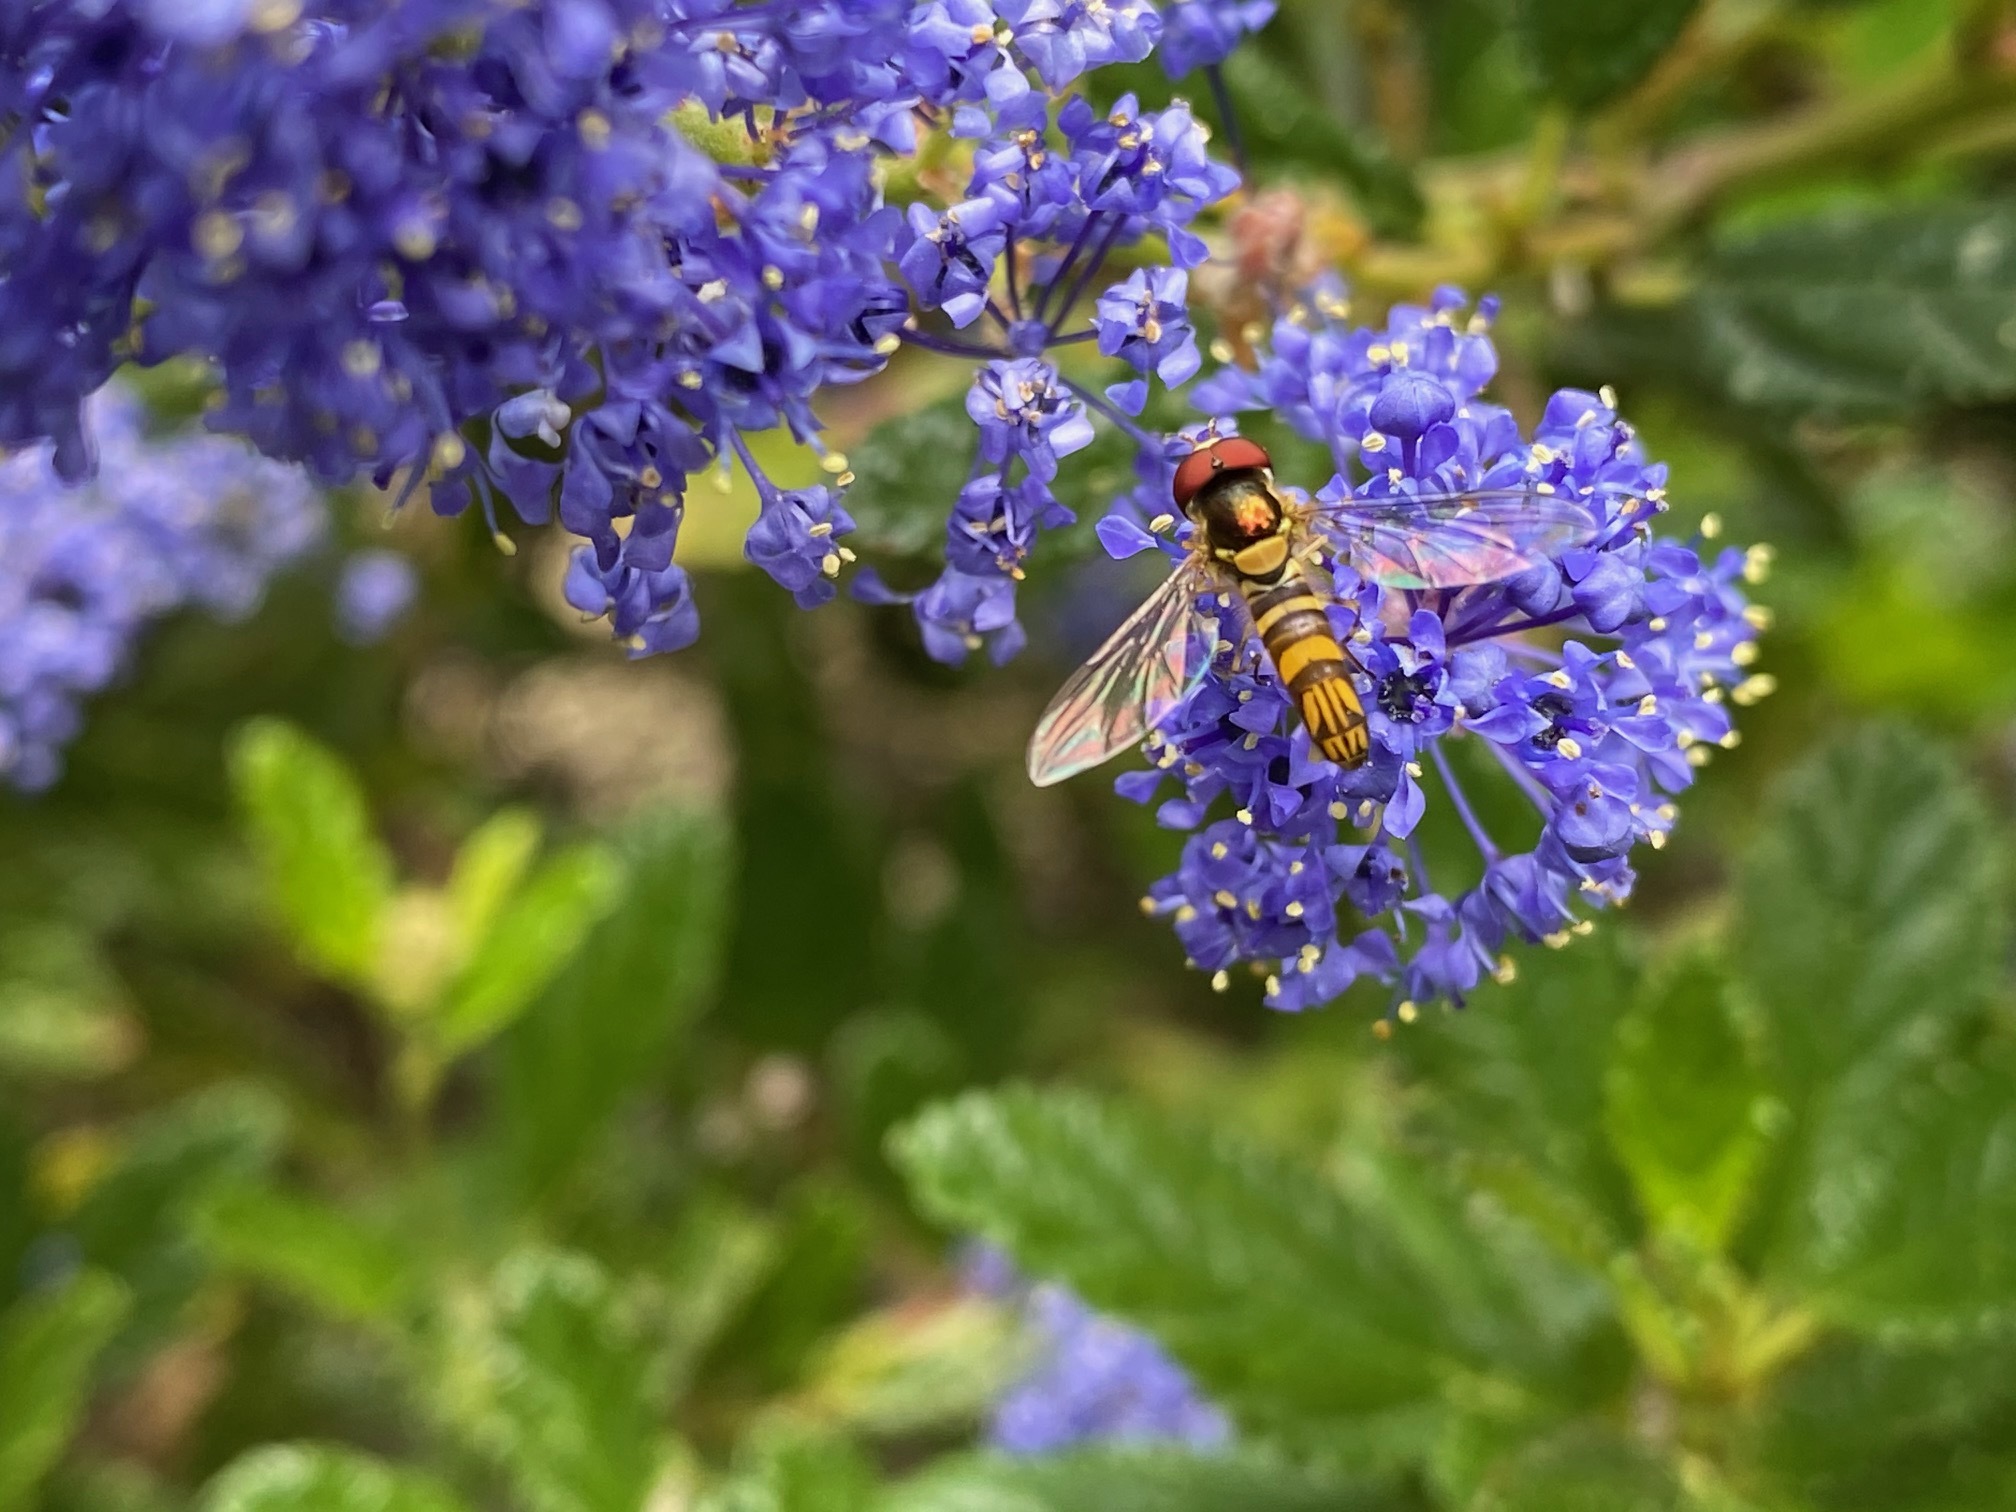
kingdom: Animalia
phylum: Arthropoda
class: Insecta
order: Diptera
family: Syrphidae
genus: Allograpta
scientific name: Allograpta obliqua
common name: Common oblique syrphid
